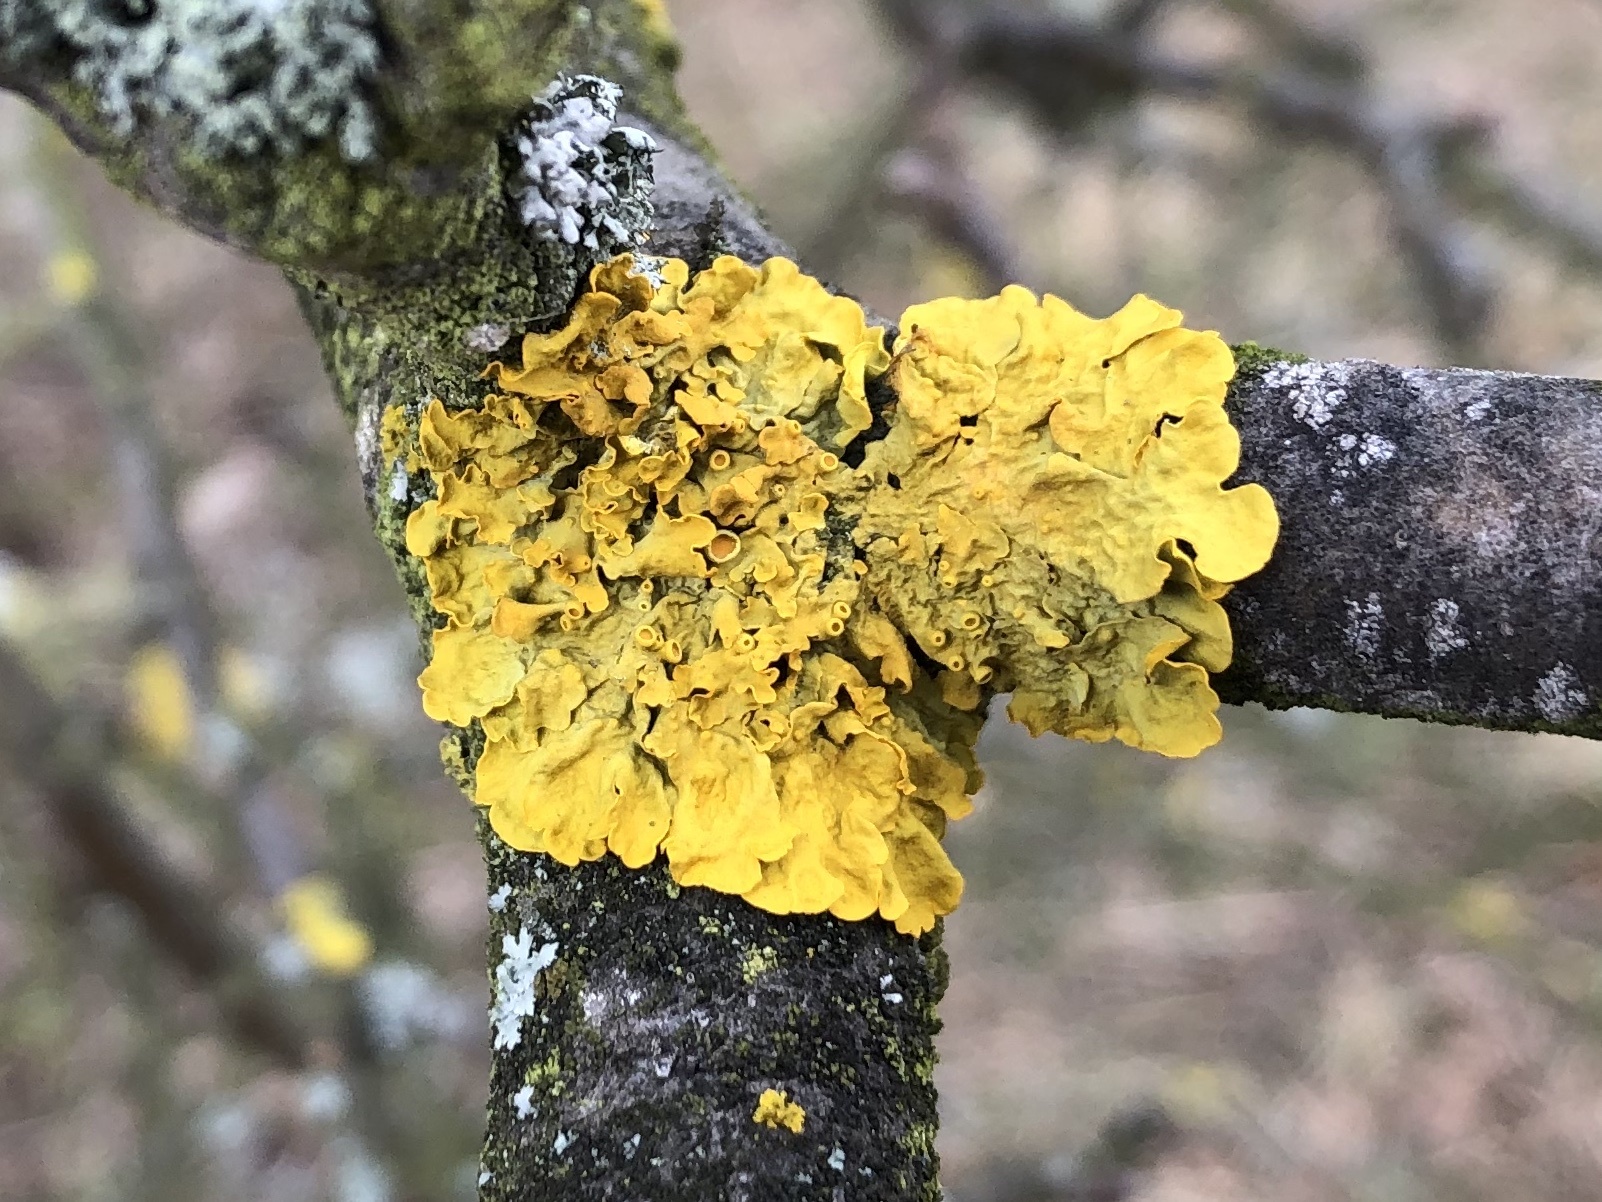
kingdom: Fungi
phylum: Ascomycota
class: Lecanoromycetes
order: Teloschistales
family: Teloschistaceae
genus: Xanthoria
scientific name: Xanthoria parietina
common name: Common orange lichen
